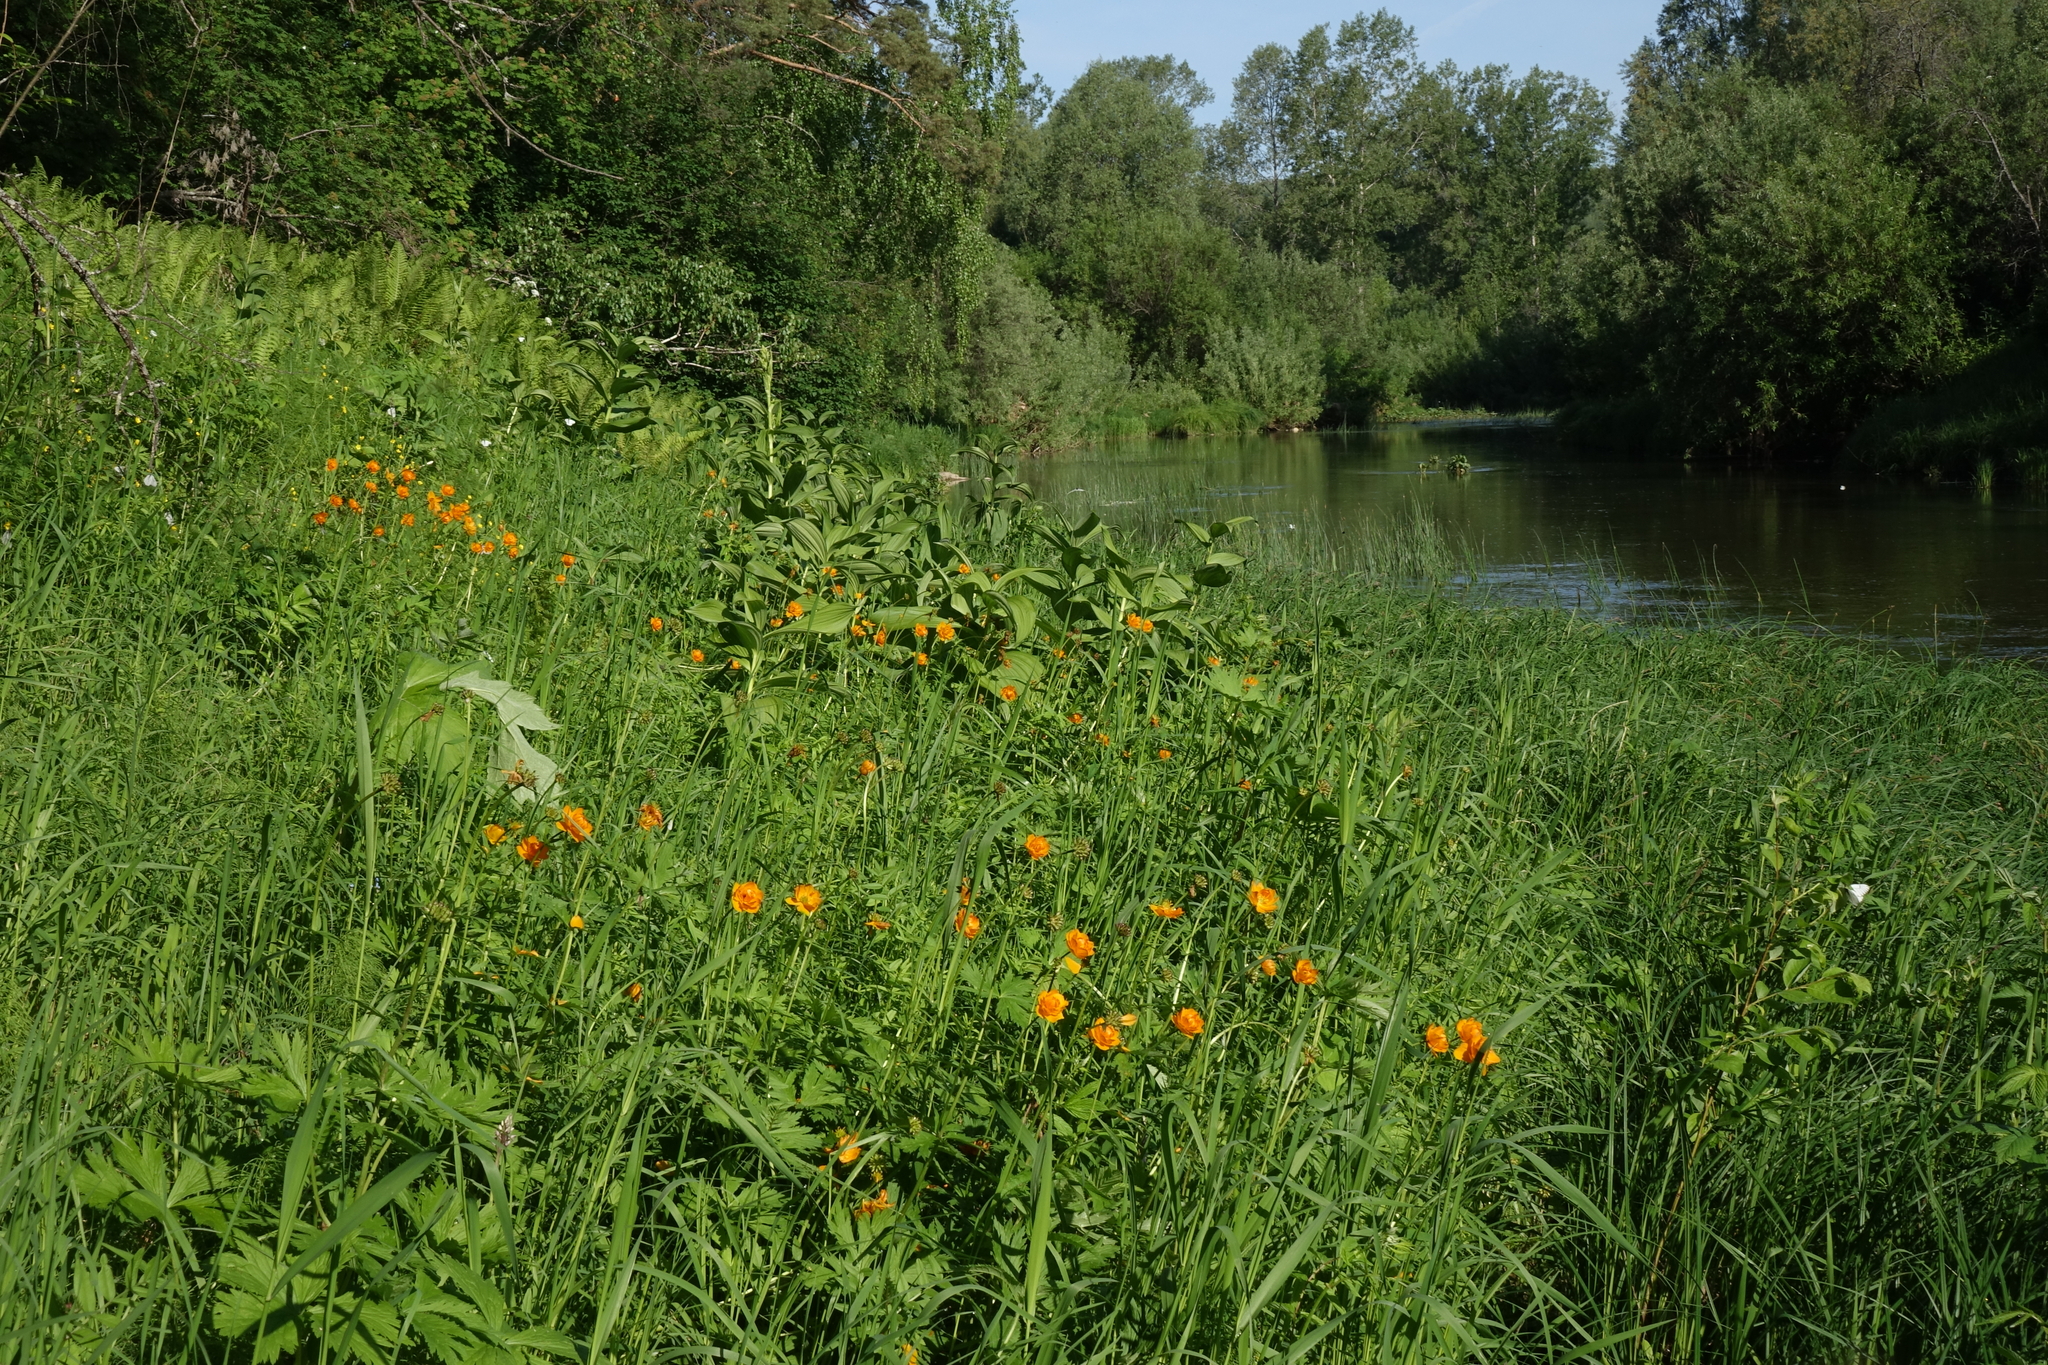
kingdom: Plantae
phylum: Tracheophyta
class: Magnoliopsida
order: Ranunculales
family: Ranunculaceae
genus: Trollius
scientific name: Trollius asiaticus
